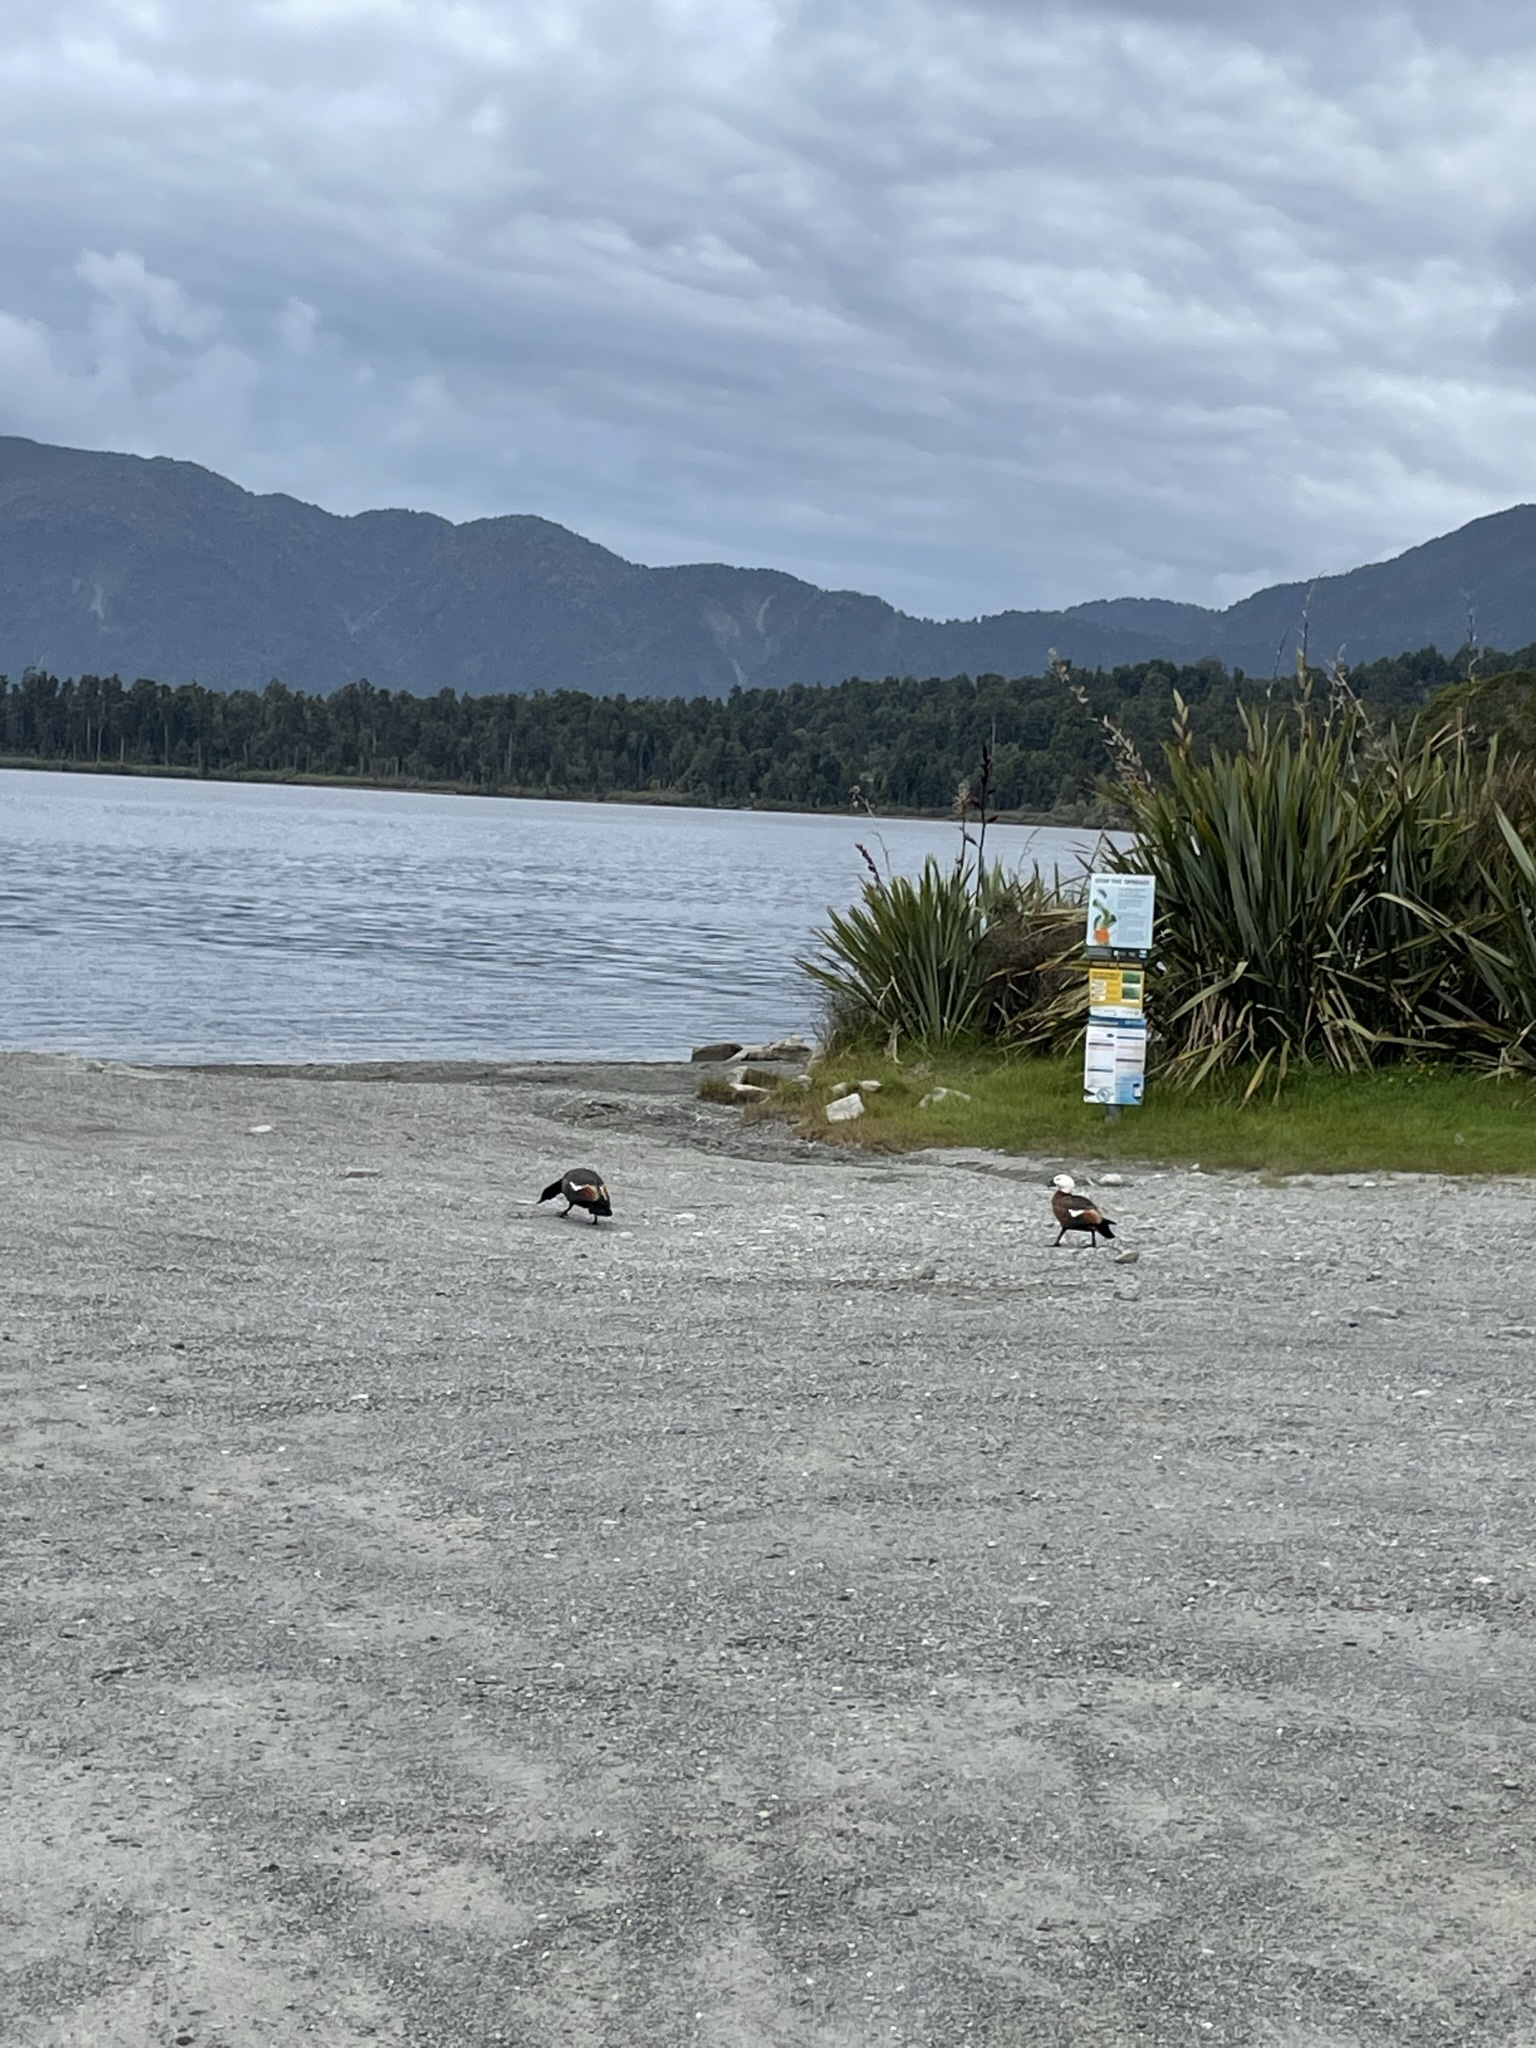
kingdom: Animalia
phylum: Chordata
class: Aves
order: Anseriformes
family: Anatidae
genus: Tadorna
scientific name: Tadorna variegata
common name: Paradise shelduck
